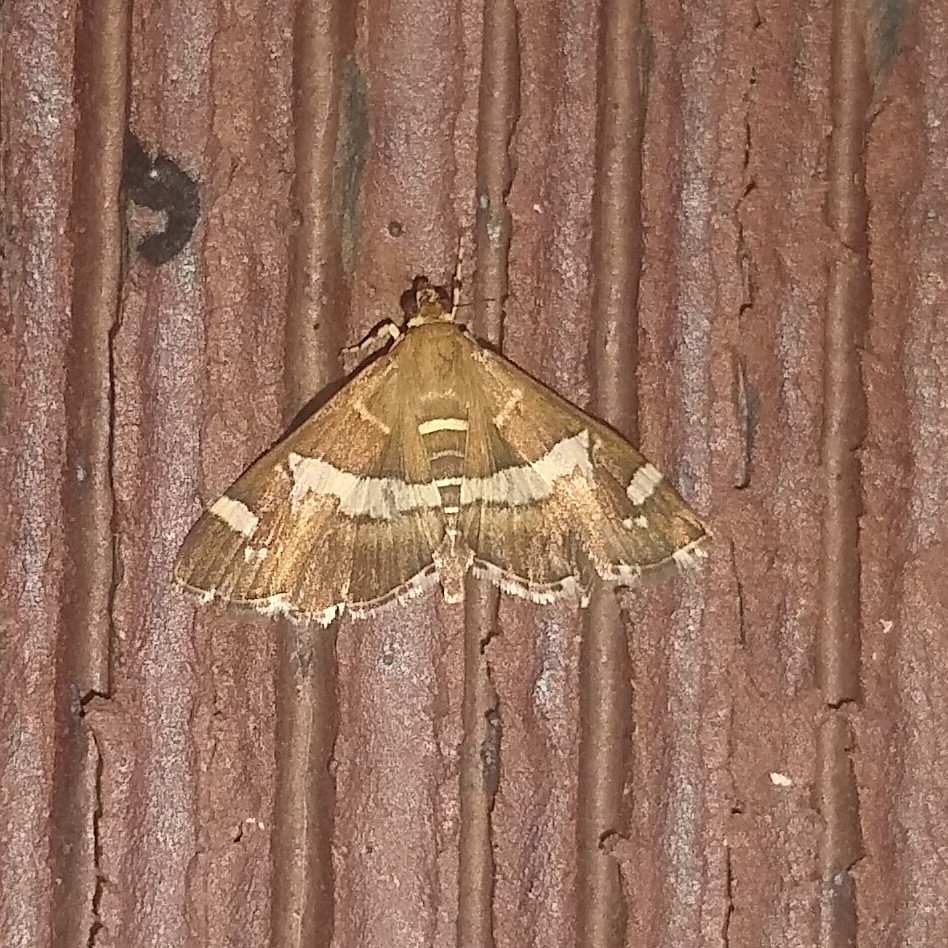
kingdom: Animalia
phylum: Arthropoda
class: Insecta
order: Lepidoptera
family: Crambidae
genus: Spoladea
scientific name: Spoladea recurvalis
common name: Beet webworm moth
